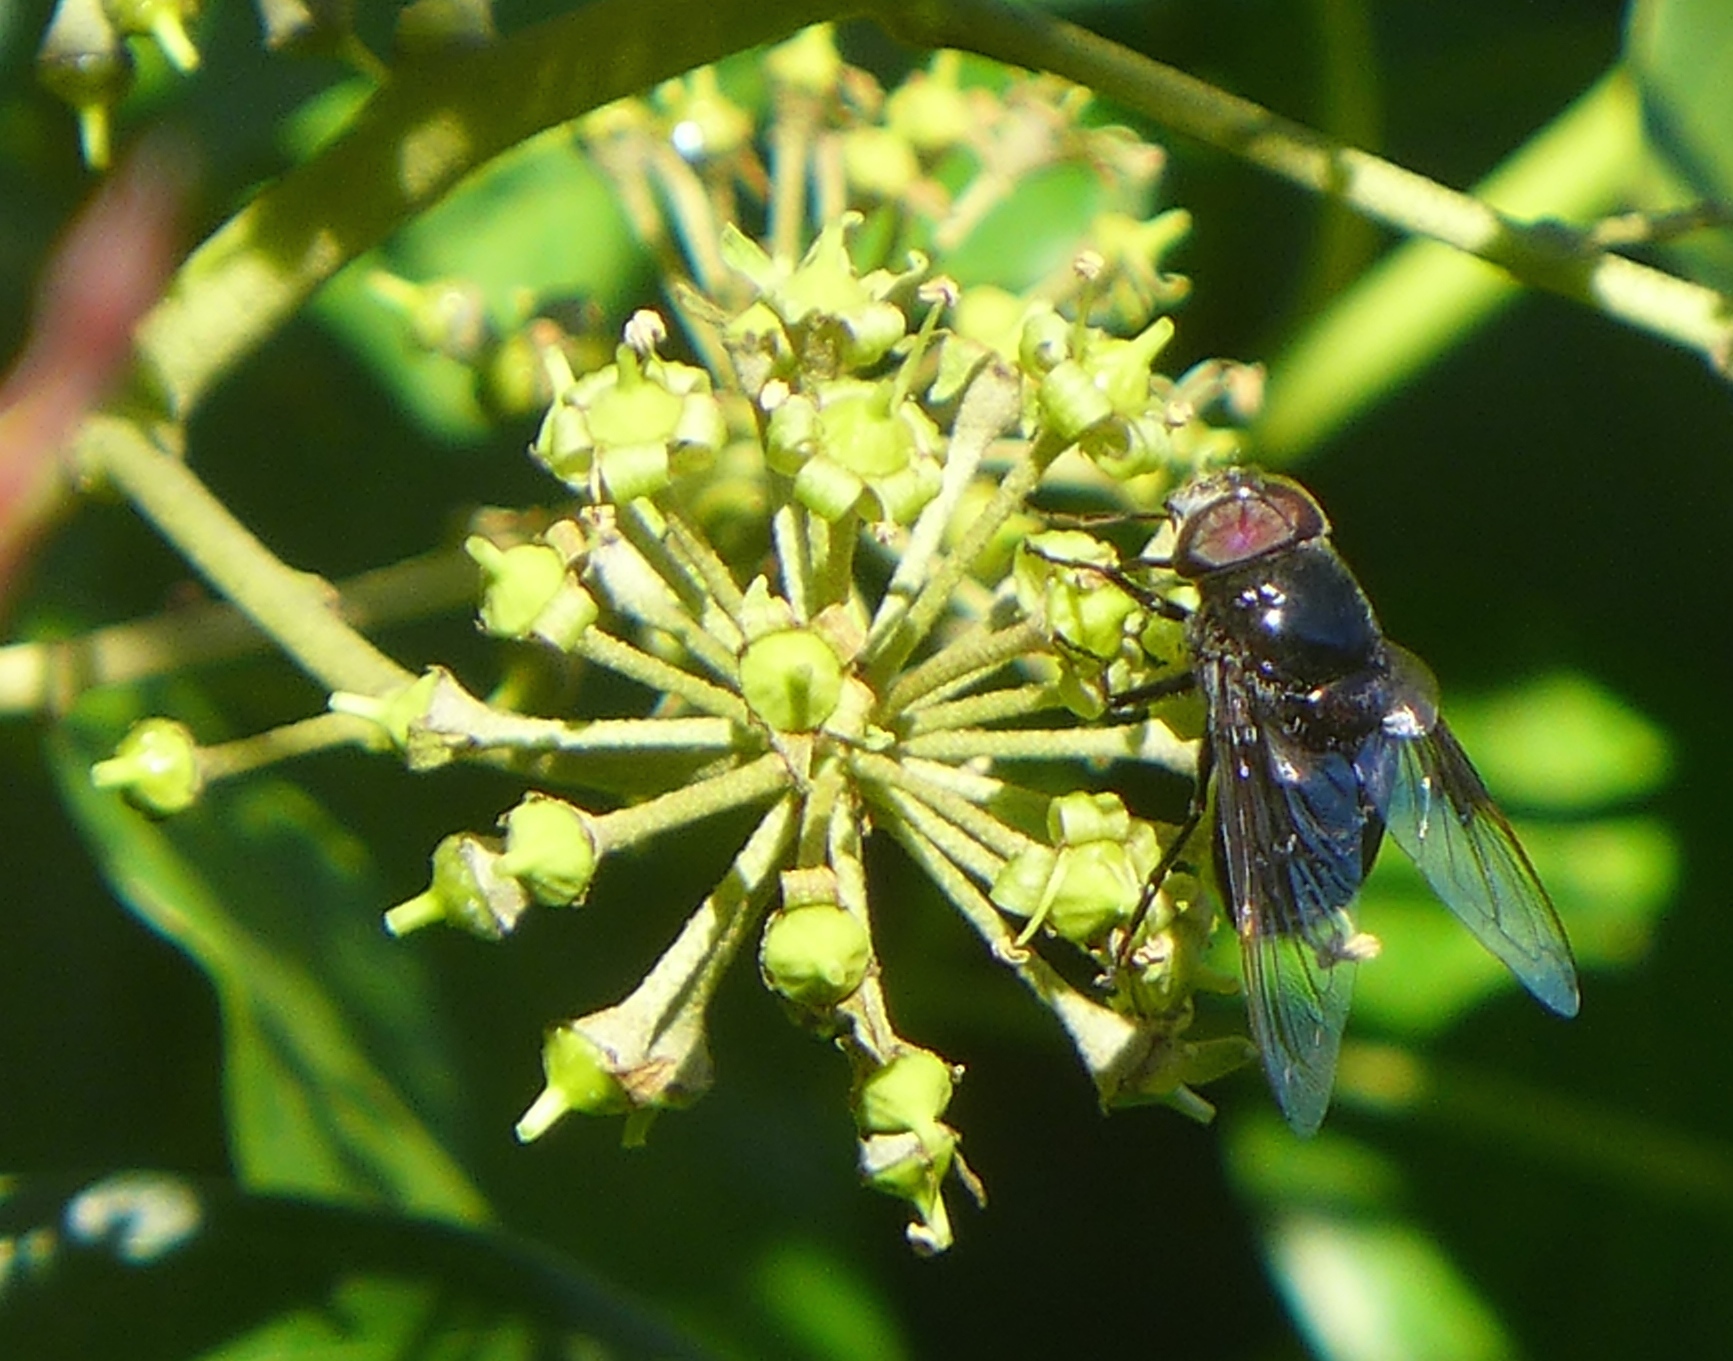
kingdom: Animalia
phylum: Arthropoda
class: Insecta
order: Diptera
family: Syrphidae
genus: Copestylum
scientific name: Copestylum mexicanum
